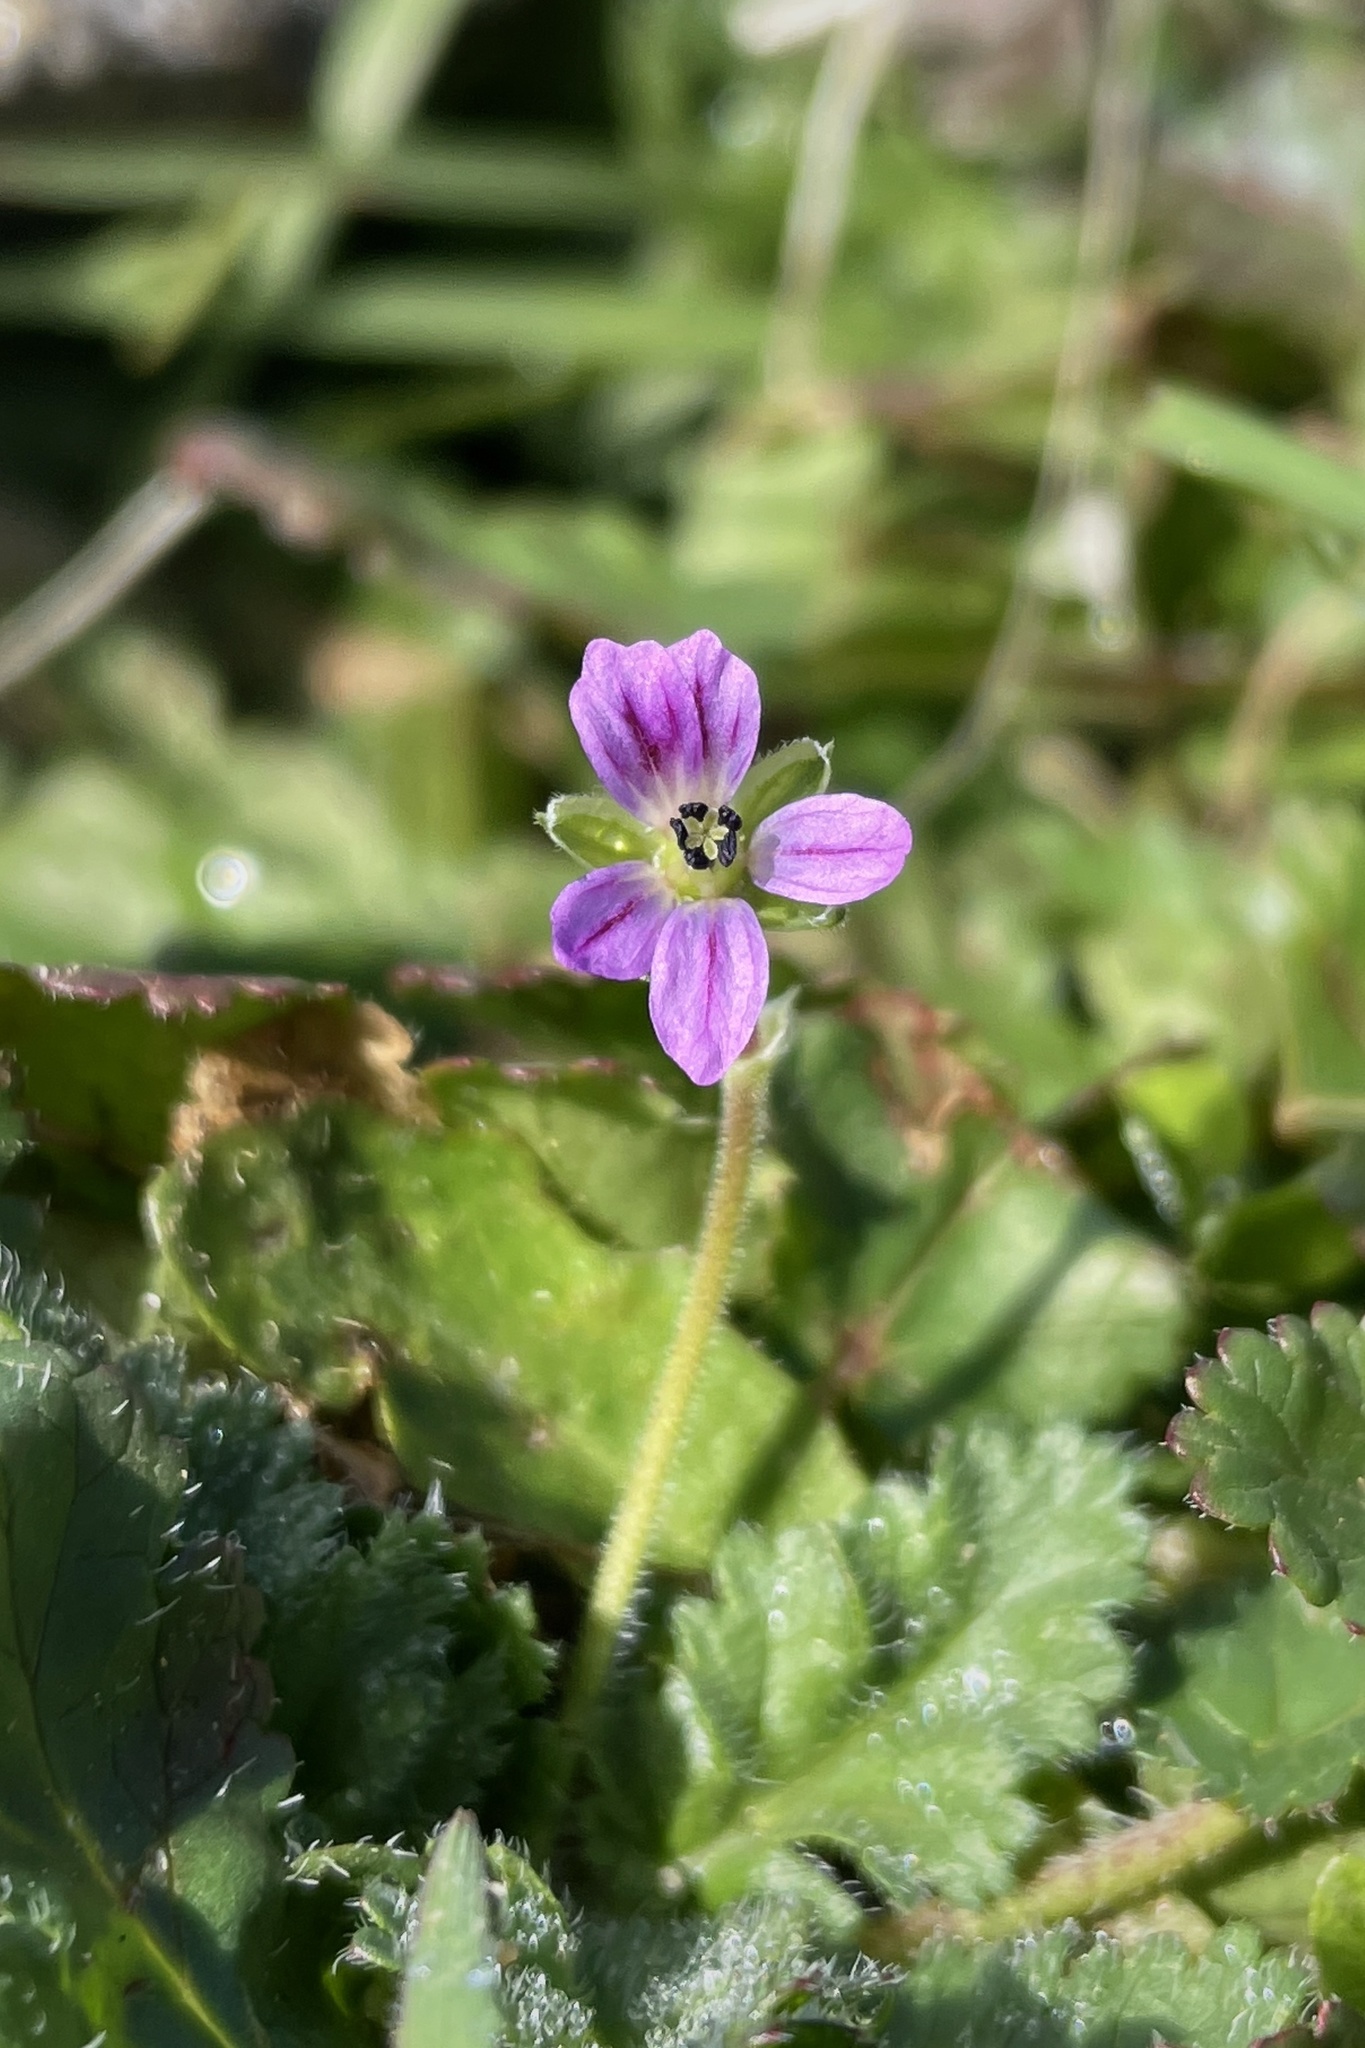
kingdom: Plantae
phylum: Tracheophyta
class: Magnoliopsida
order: Geraniales
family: Geraniaceae
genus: Erodium
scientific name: Erodium brachycarpum
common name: Hairy-pitted stork's-bill
